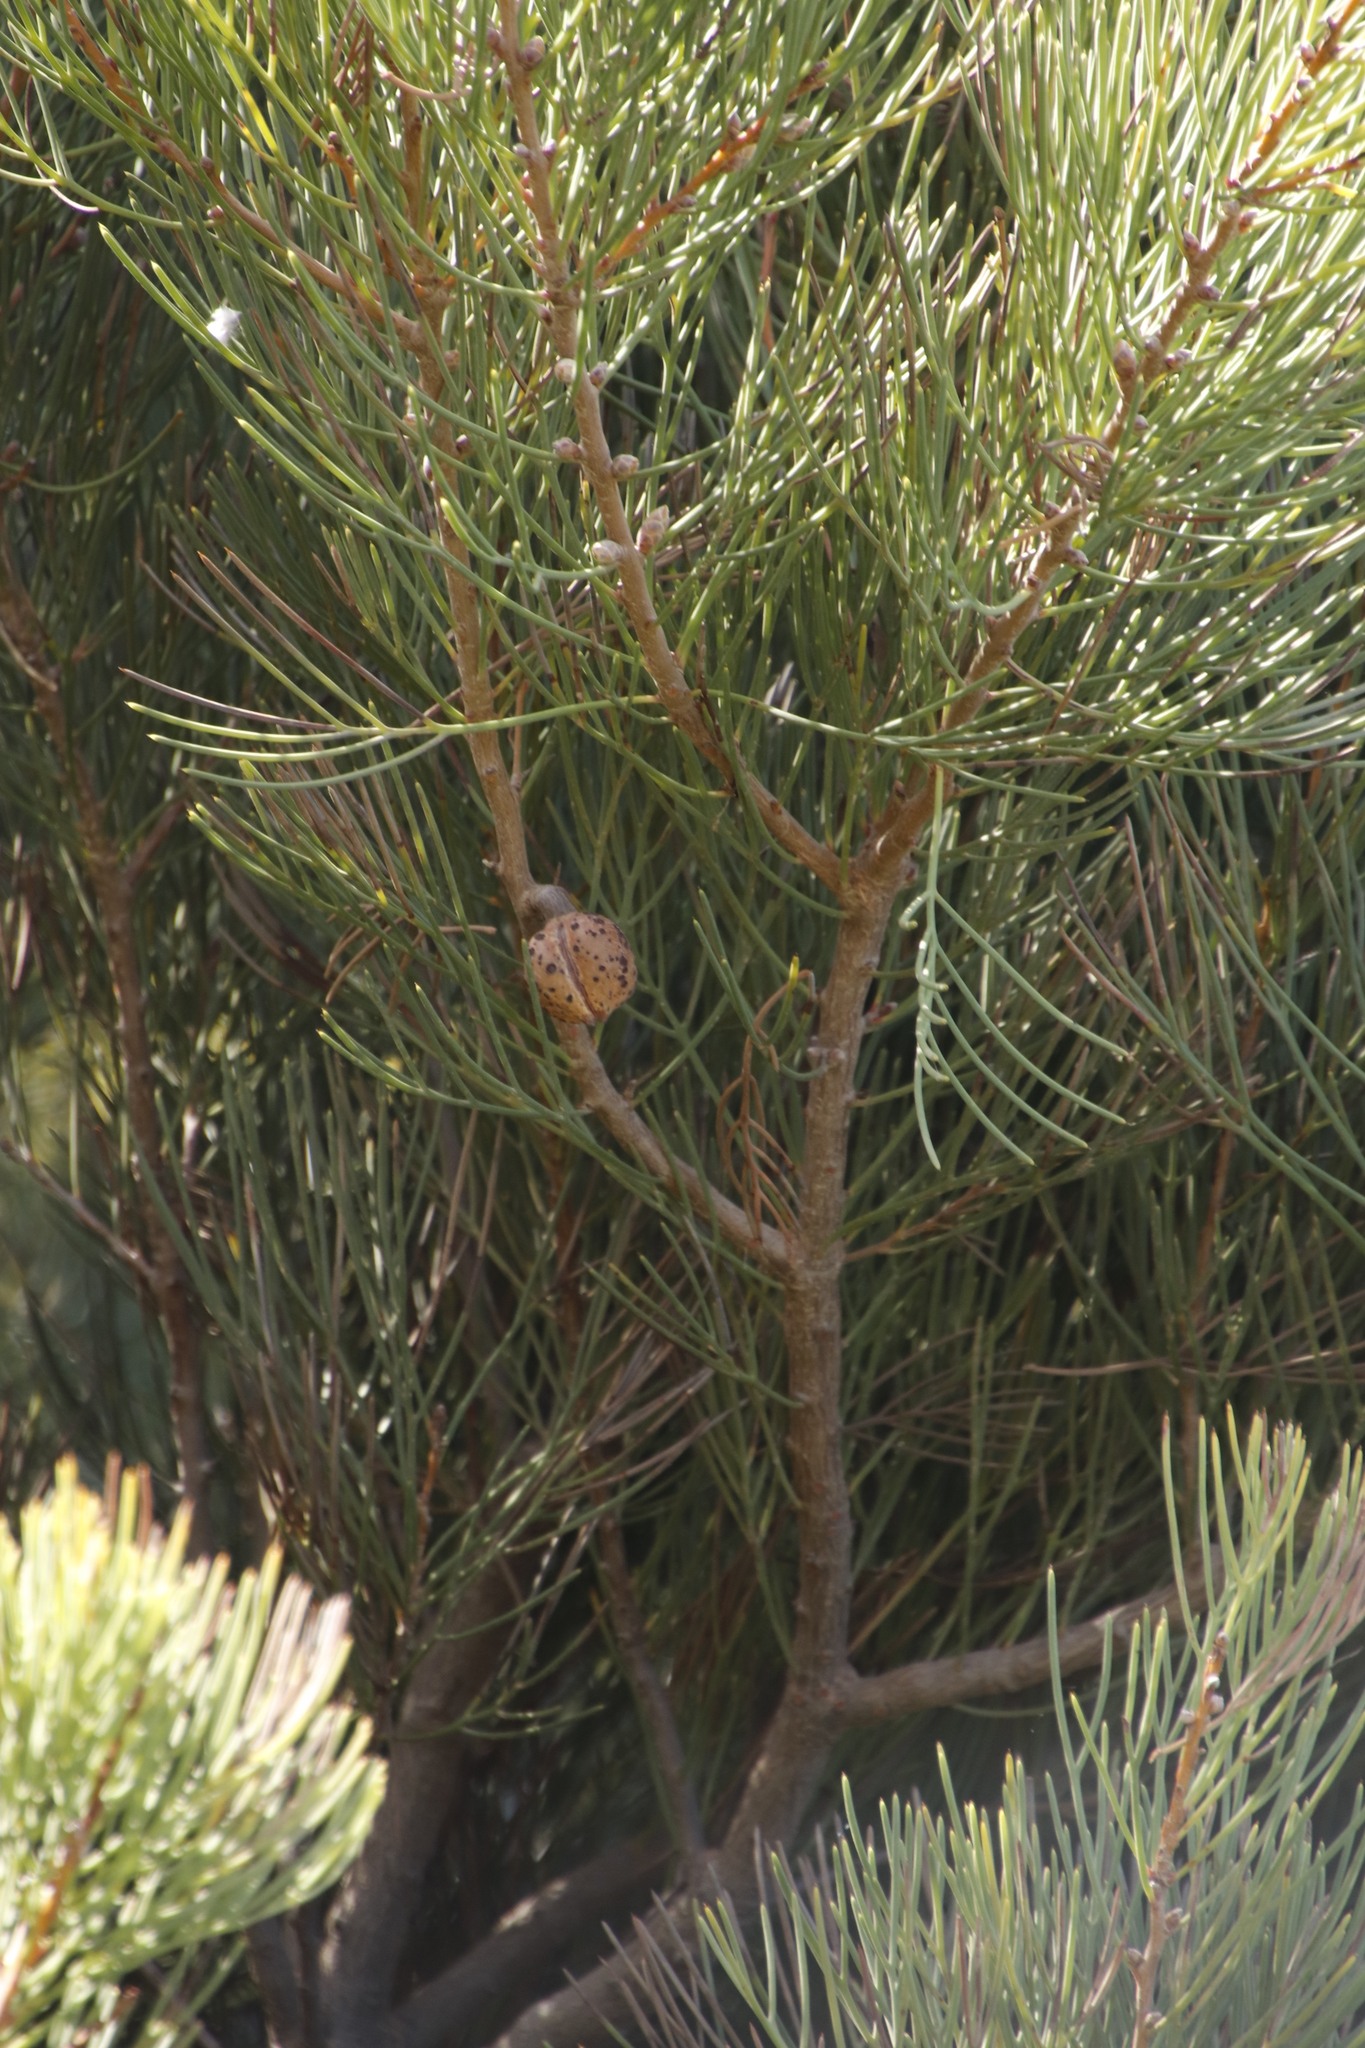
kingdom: Plantae
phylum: Tracheophyta
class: Magnoliopsida
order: Proteales
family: Proteaceae
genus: Hakea
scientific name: Hakea drupacea
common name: Sweet hakea
